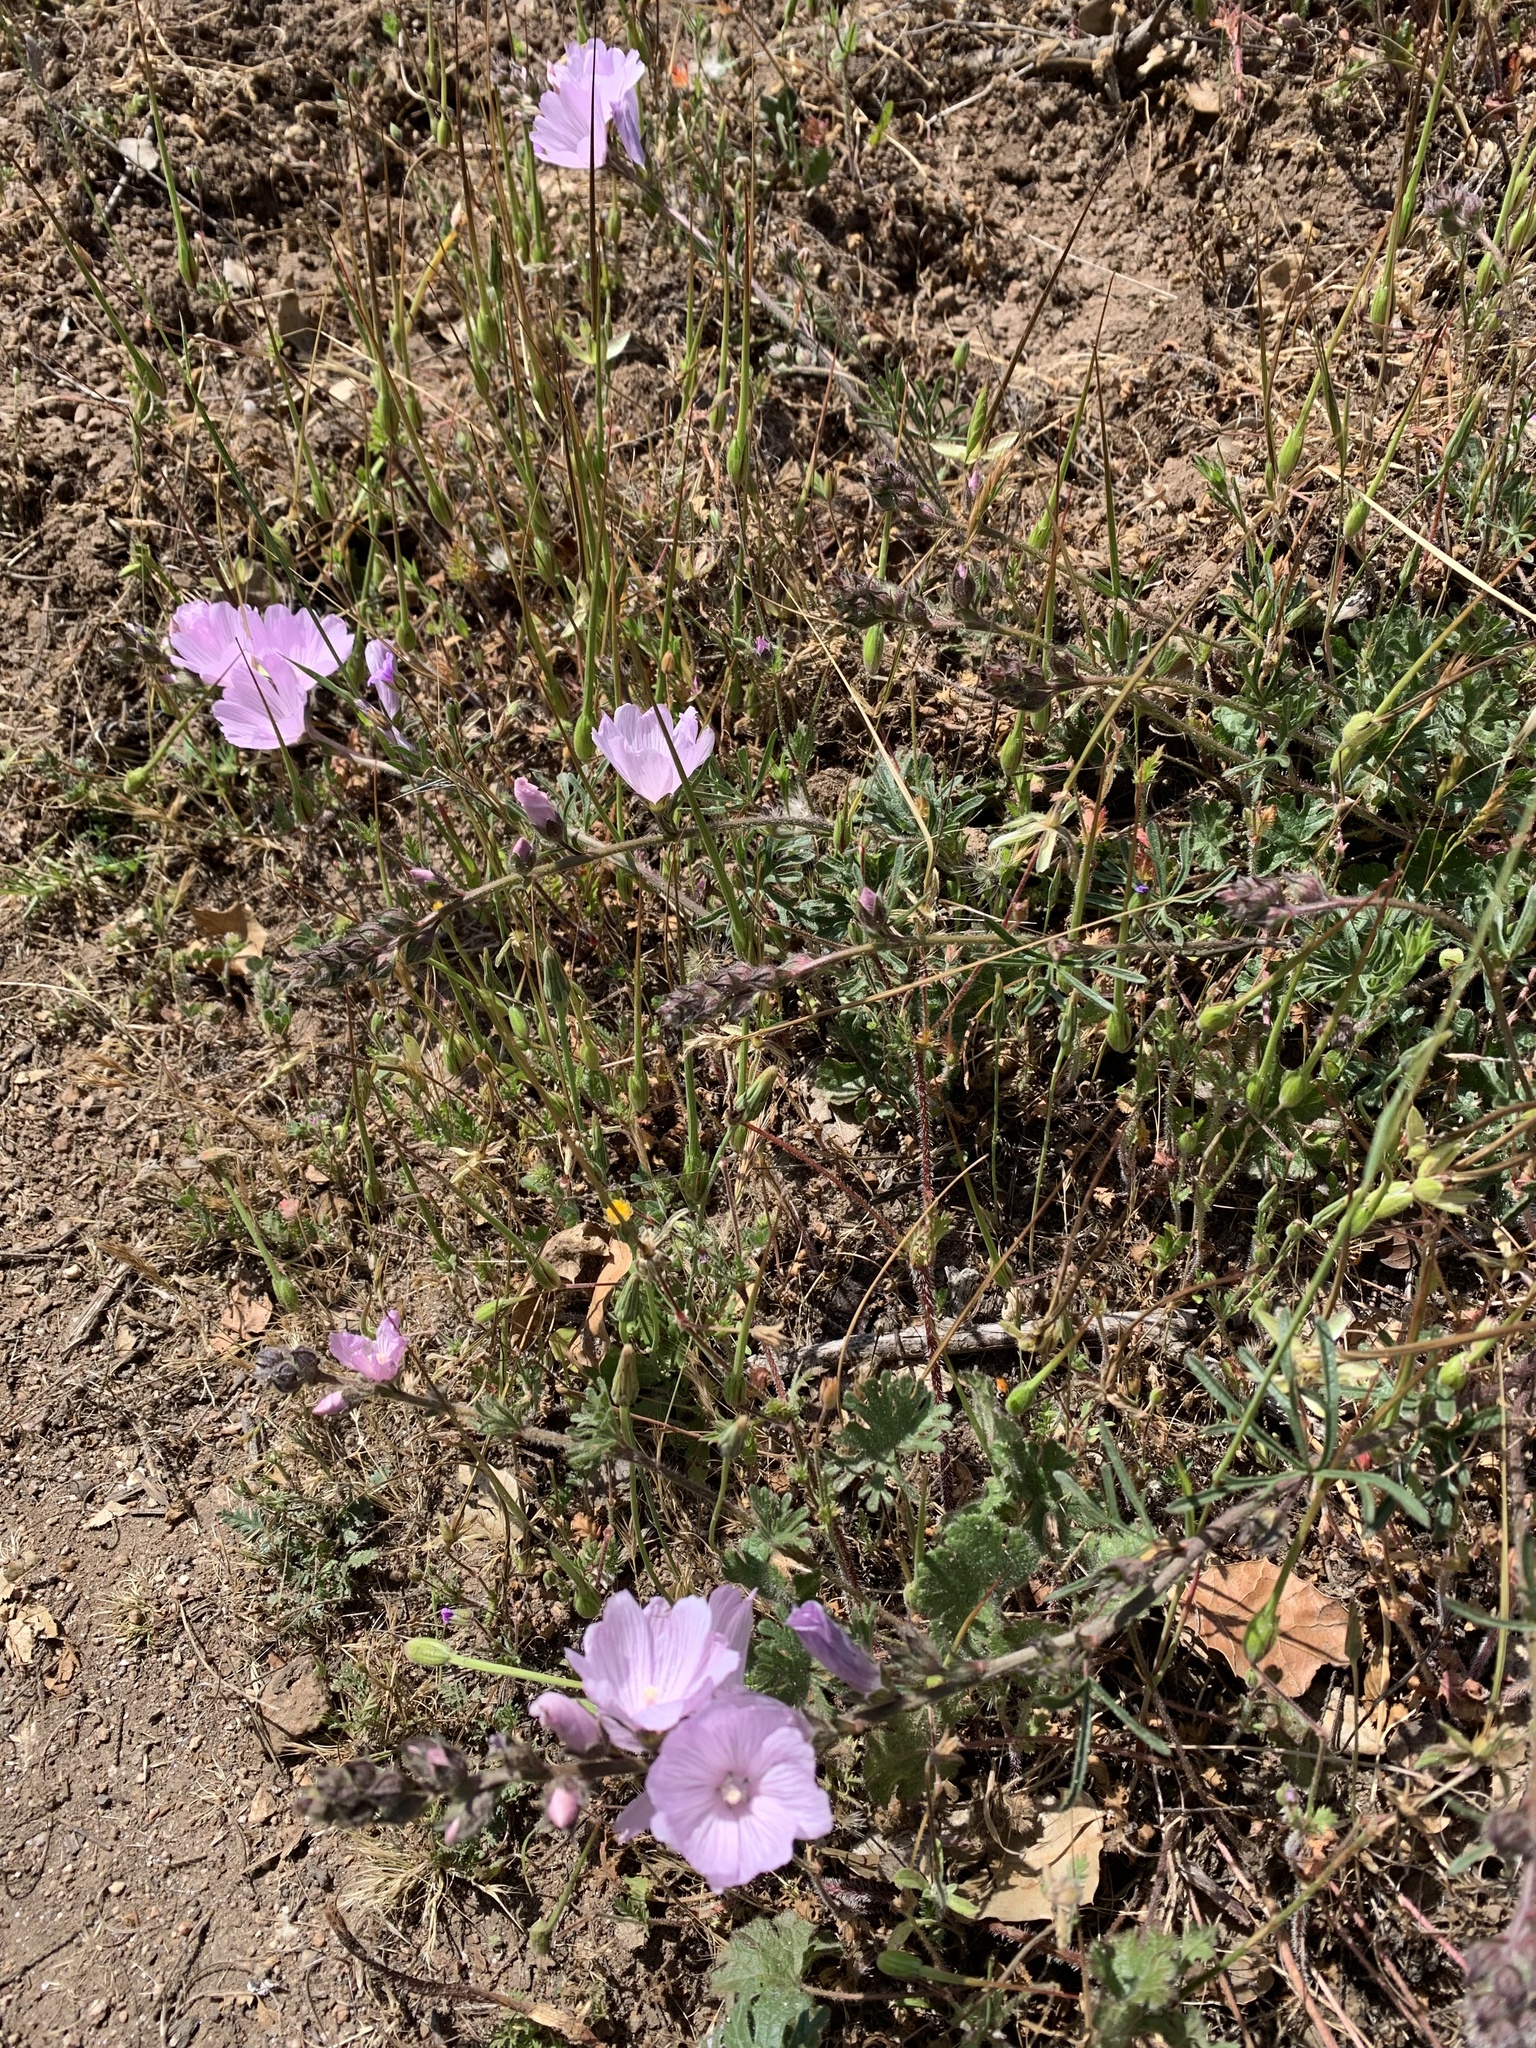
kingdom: Plantae
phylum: Tracheophyta
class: Magnoliopsida
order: Malvales
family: Malvaceae
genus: Sidalcea
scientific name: Sidalcea malviflora
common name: Greek mallow
